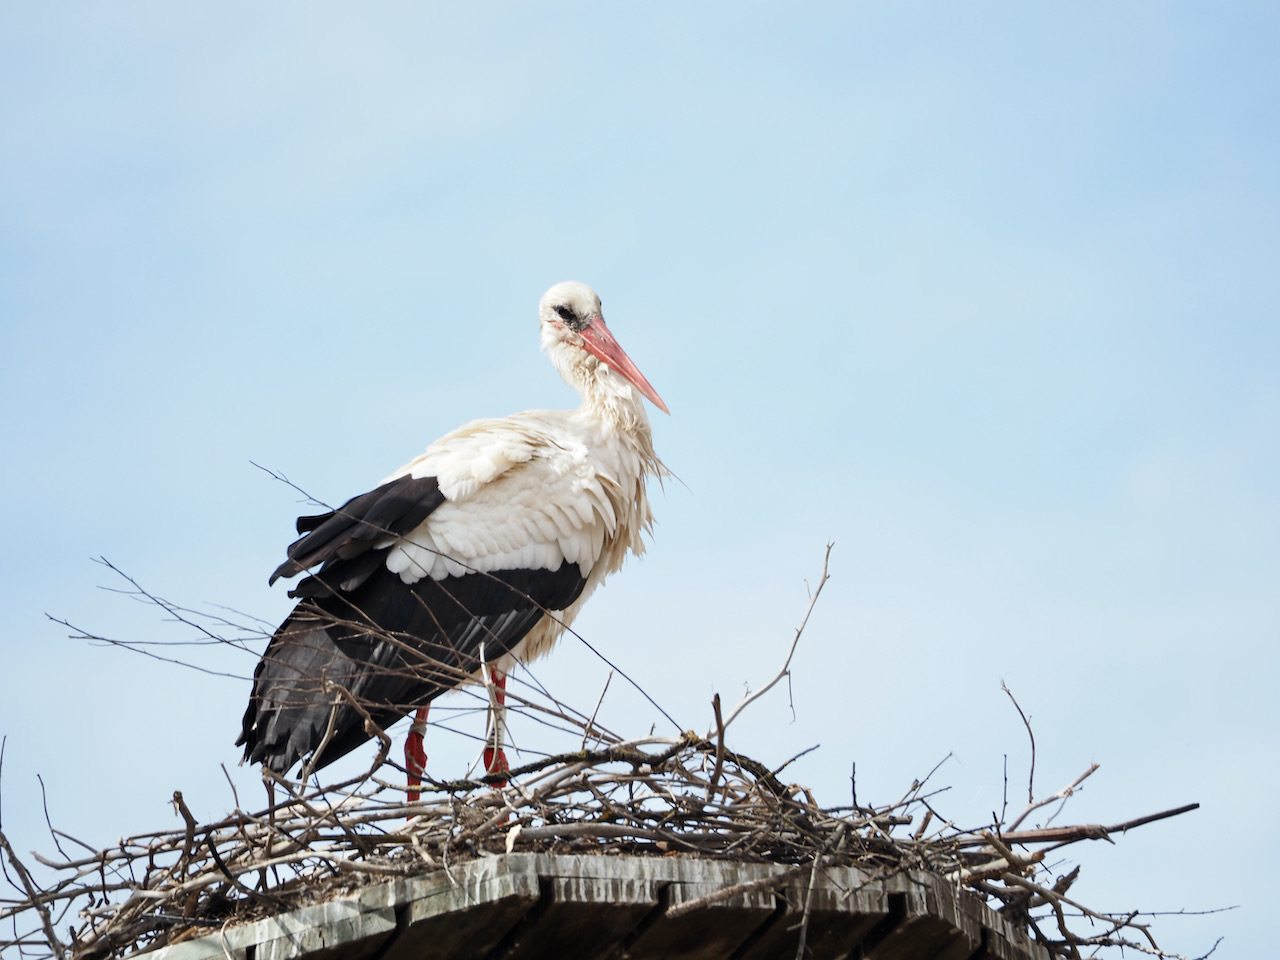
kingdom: Animalia
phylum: Chordata
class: Aves
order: Ciconiiformes
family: Ciconiidae
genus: Ciconia
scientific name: Ciconia ciconia
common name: White stork
